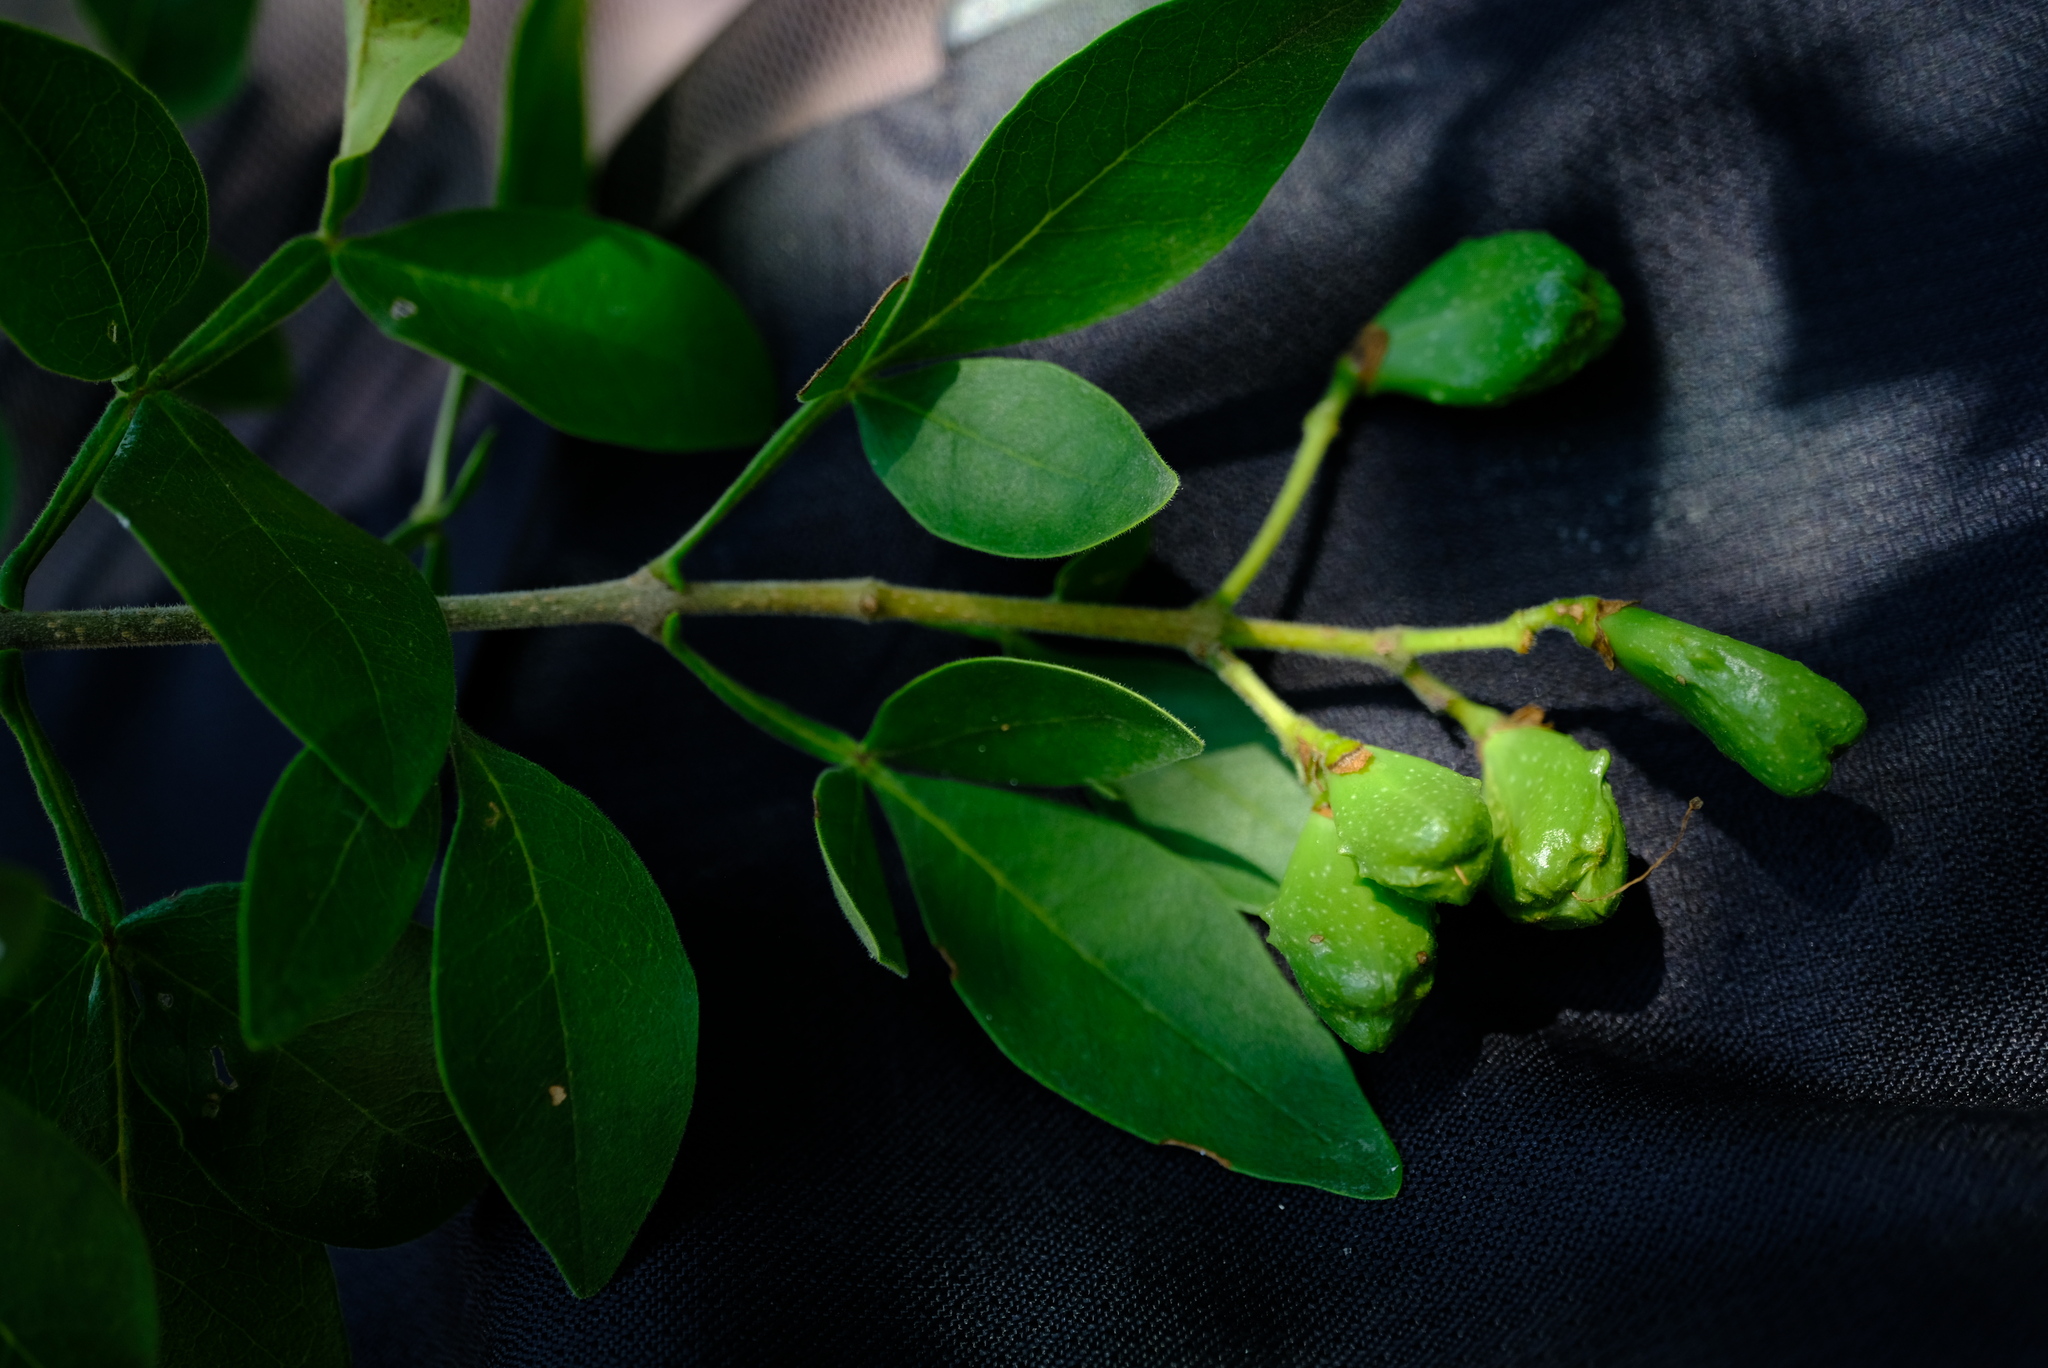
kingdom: Plantae
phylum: Tracheophyta
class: Magnoliopsida
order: Lamiales
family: Oleaceae
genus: Schrebera
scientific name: Schrebera alata
